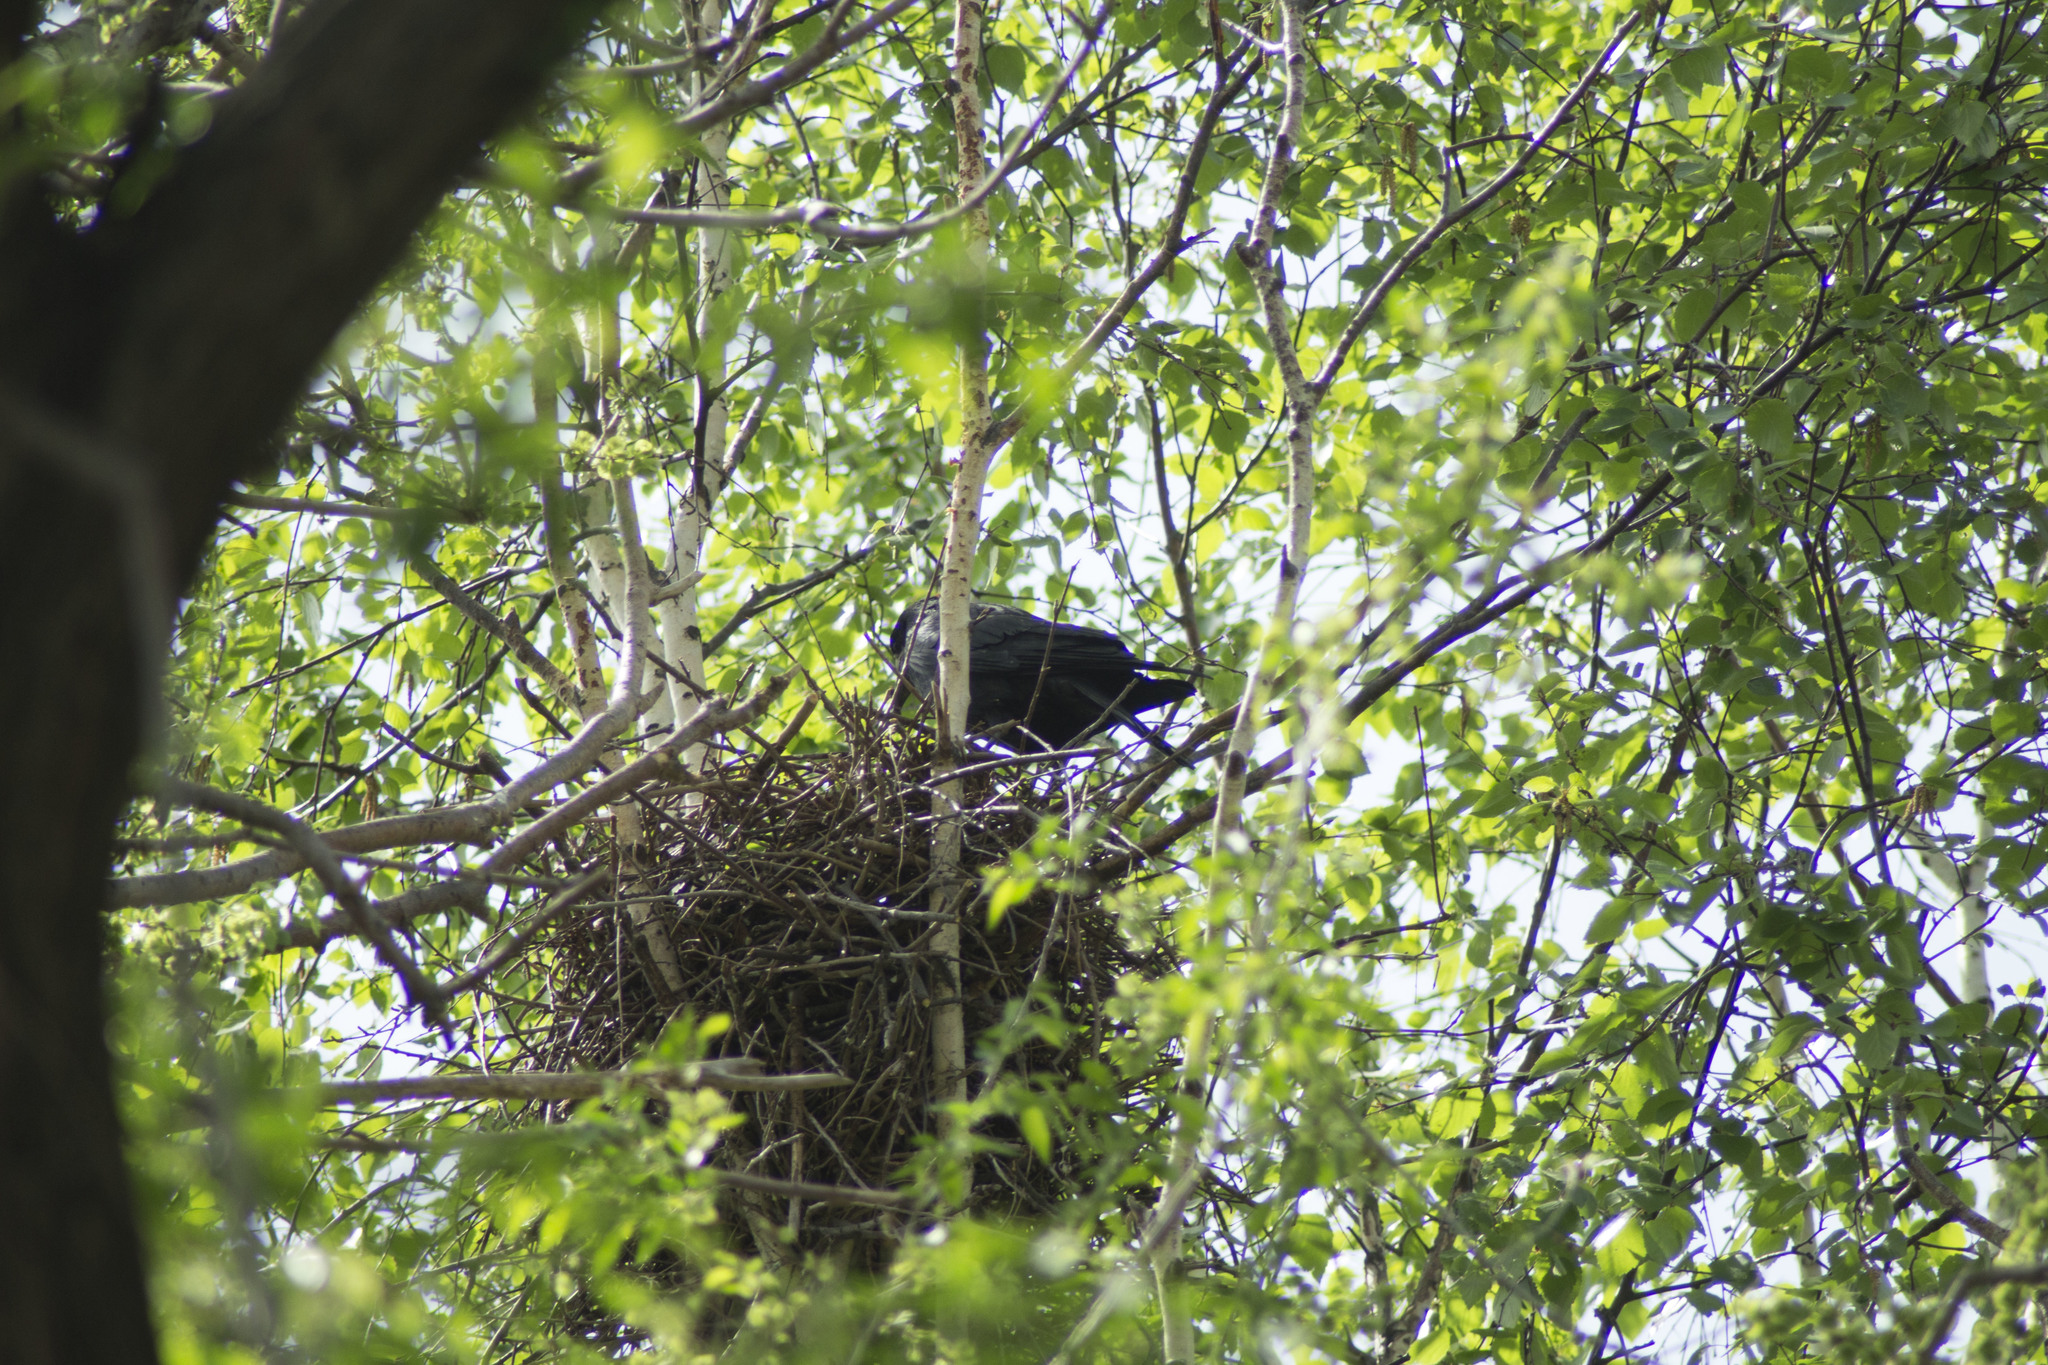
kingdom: Animalia
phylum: Chordata
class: Aves
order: Passeriformes
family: Corvidae
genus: Corvus
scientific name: Corvus frugilegus
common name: Rook
